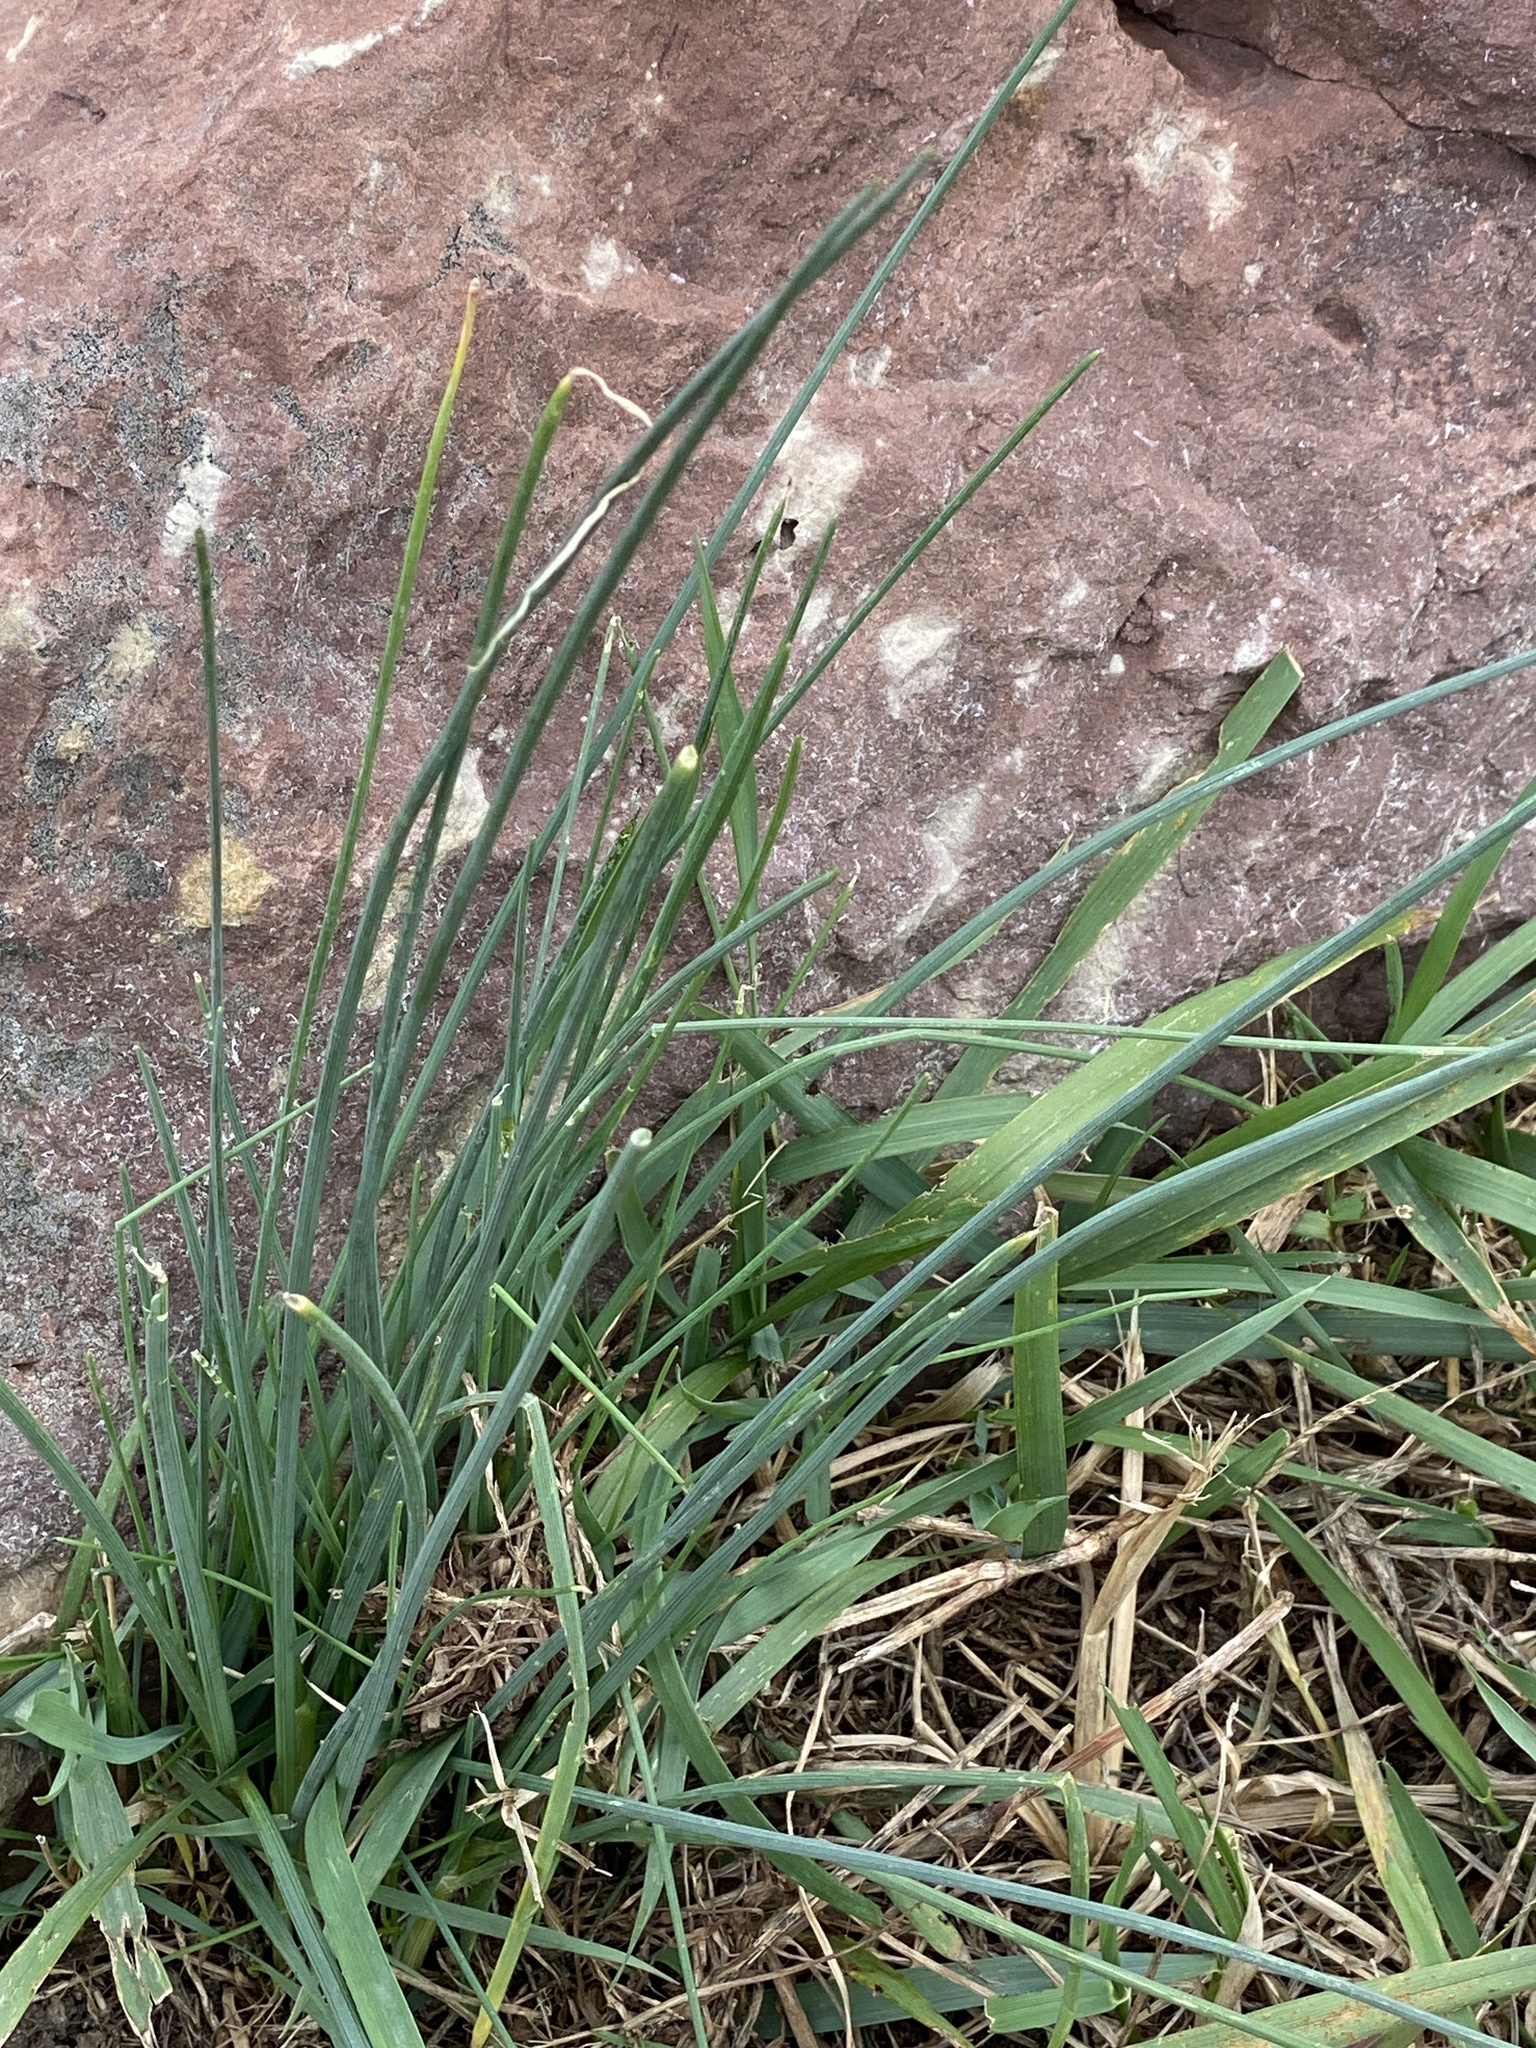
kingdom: Plantae
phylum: Tracheophyta
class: Liliopsida
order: Asparagales
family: Amaryllidaceae
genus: Allium
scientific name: Allium vineale
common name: Crow garlic
